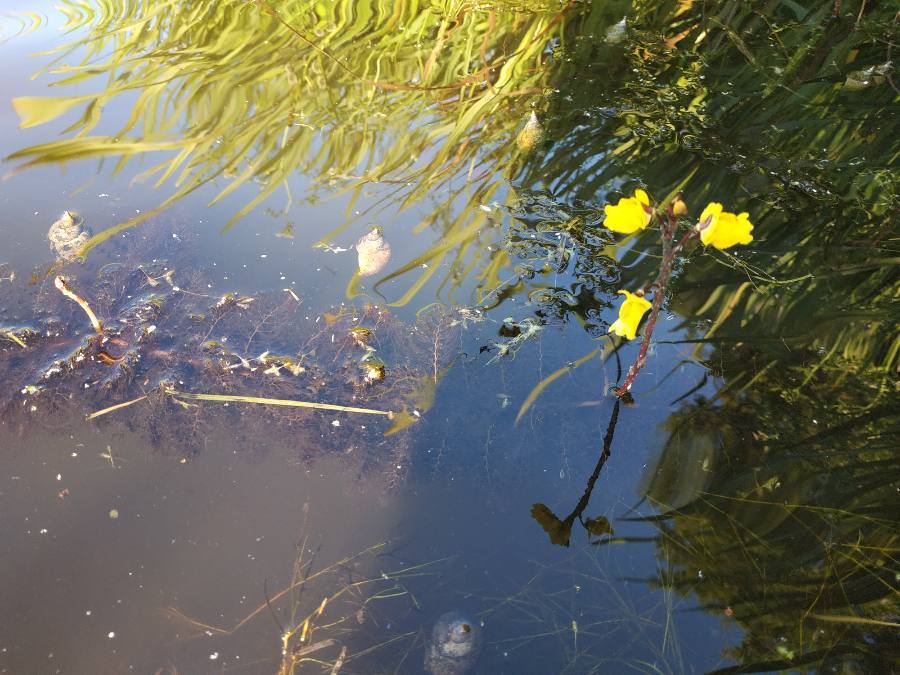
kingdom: Plantae
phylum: Tracheophyta
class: Magnoliopsida
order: Lamiales
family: Lentibulariaceae
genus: Utricularia
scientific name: Utricularia vulgaris
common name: Greater bladderwort
